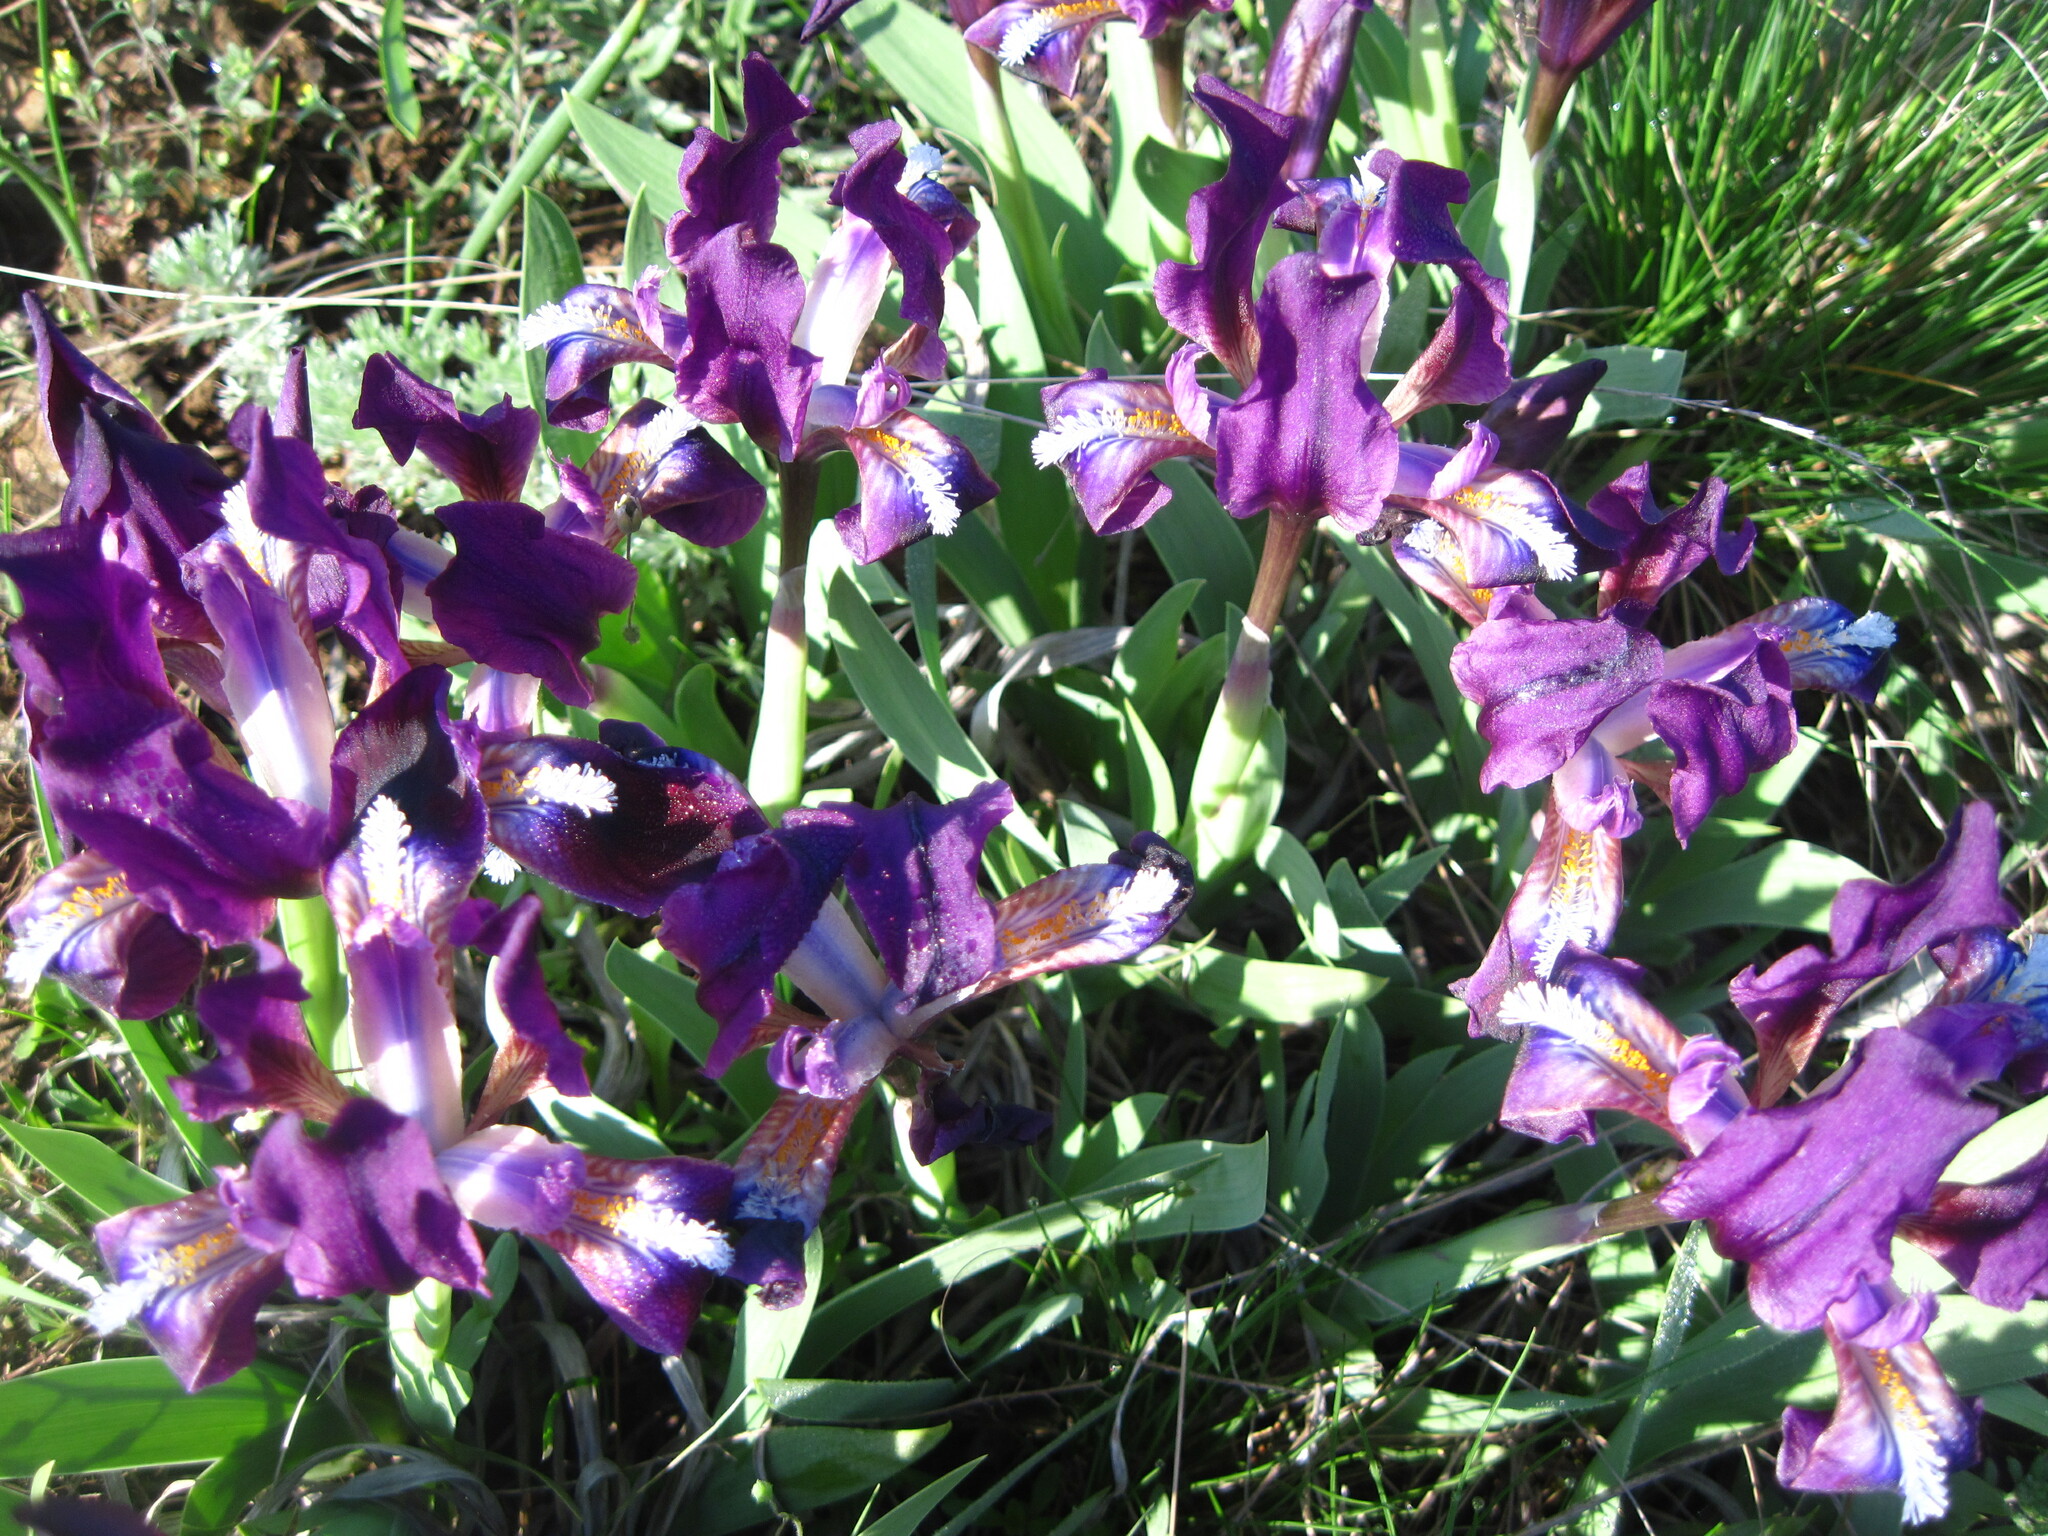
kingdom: Plantae
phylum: Tracheophyta
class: Liliopsida
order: Asparagales
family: Iridaceae
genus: Iris
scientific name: Iris pumila
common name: Dwarf iris
